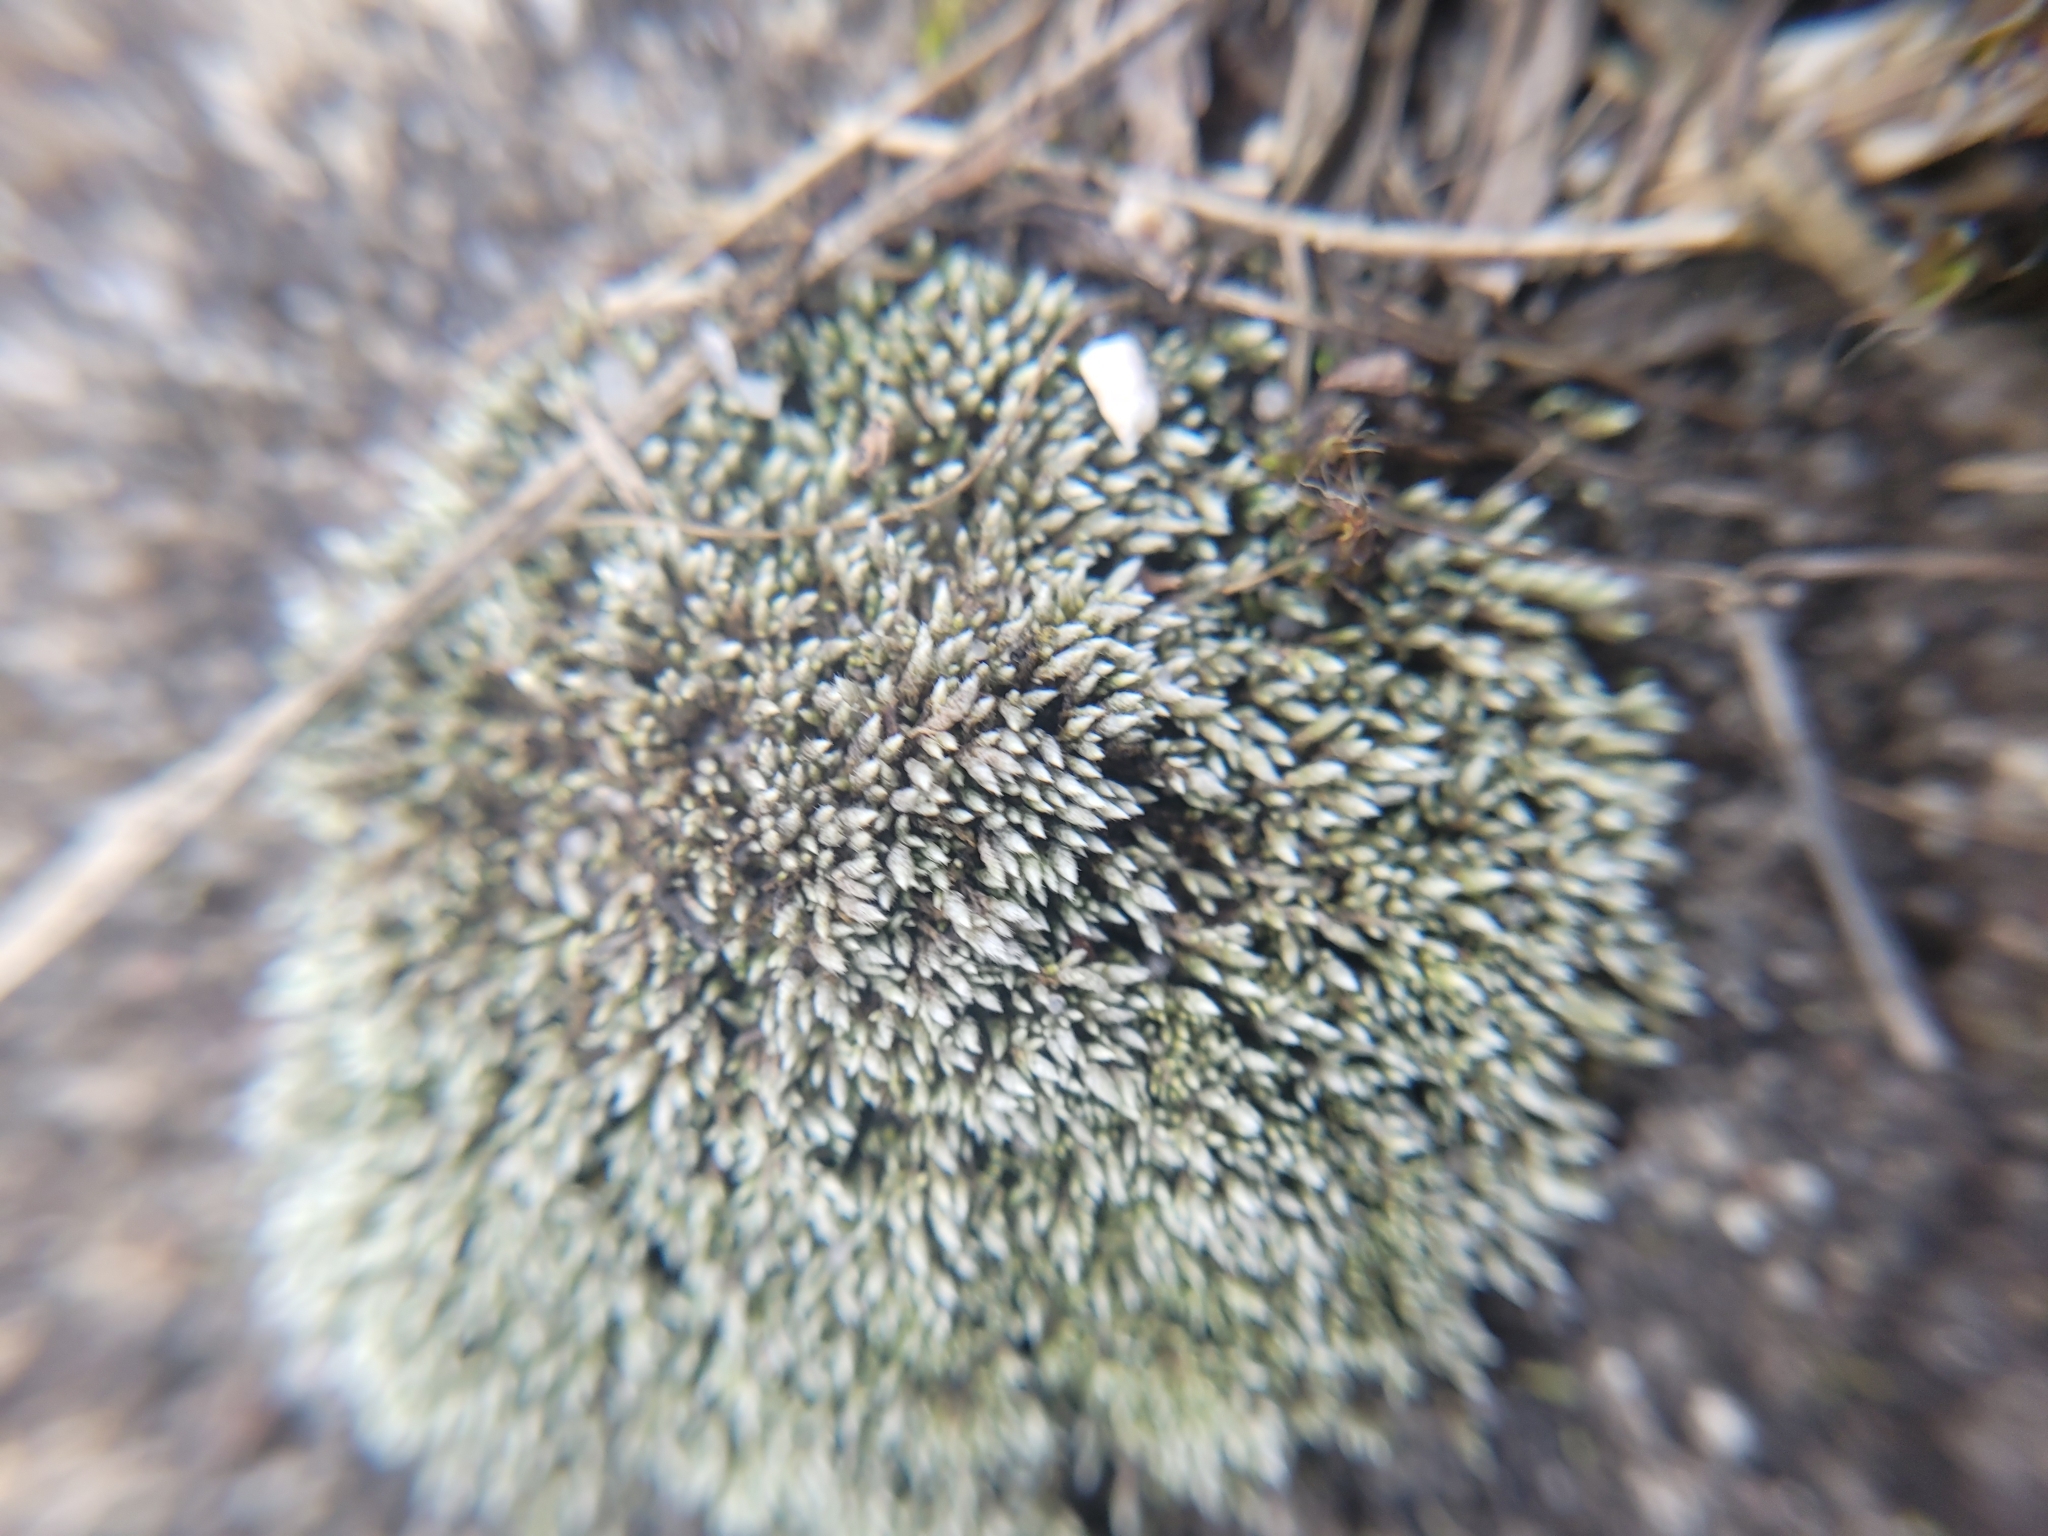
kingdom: Plantae
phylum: Bryophyta
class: Bryopsida
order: Bryales
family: Bryaceae
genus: Bryum
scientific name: Bryum argenteum
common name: Silver-moss
